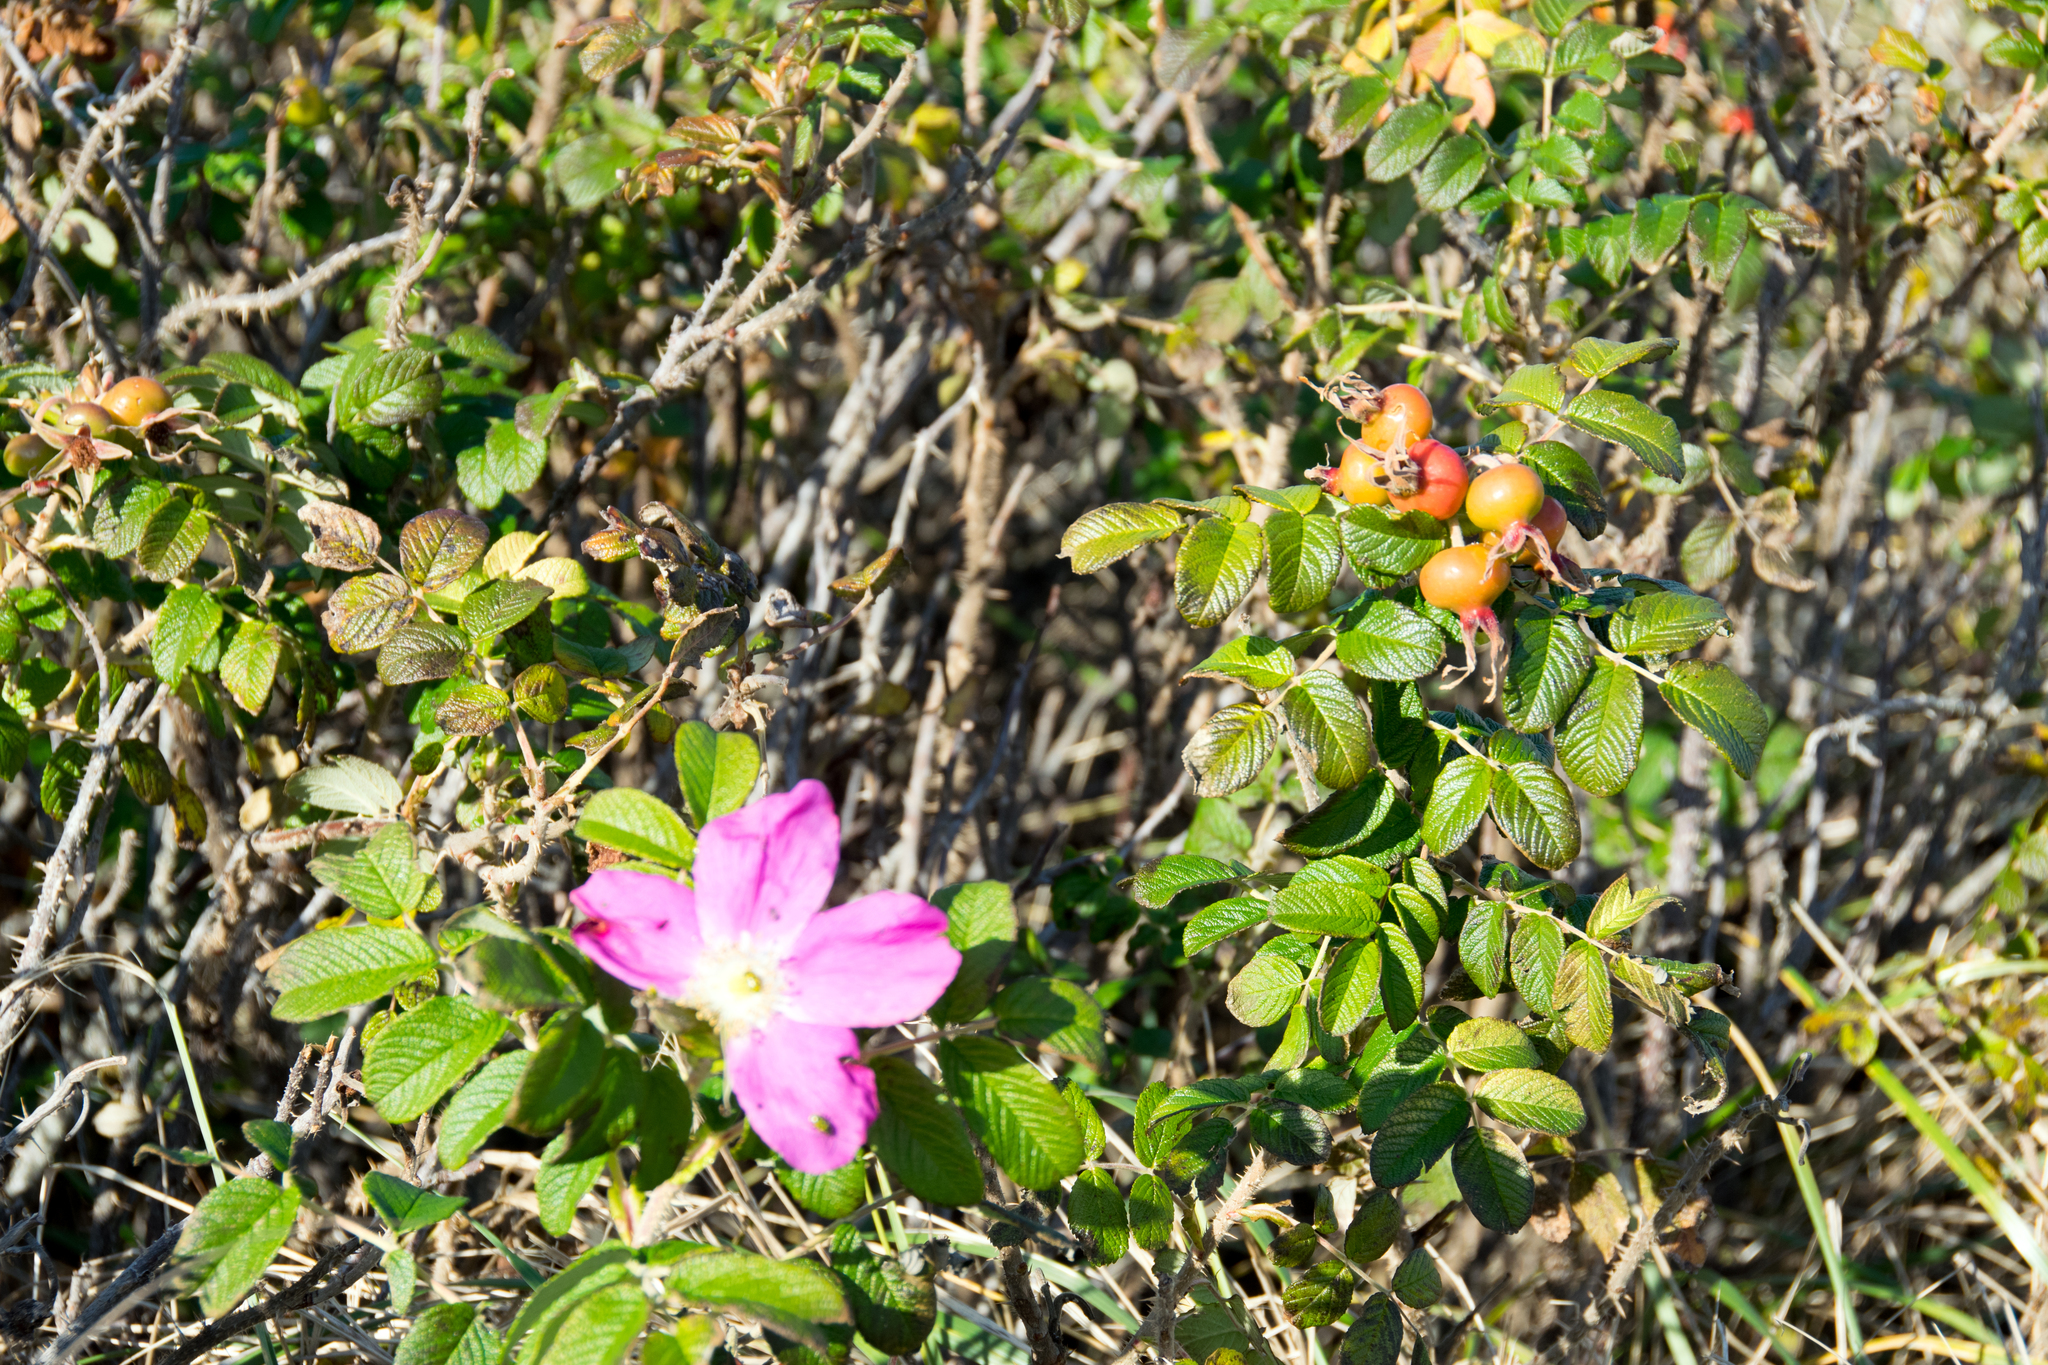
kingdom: Plantae
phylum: Tracheophyta
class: Magnoliopsida
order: Rosales
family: Rosaceae
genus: Rosa
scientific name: Rosa rugosa
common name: Japanese rose
